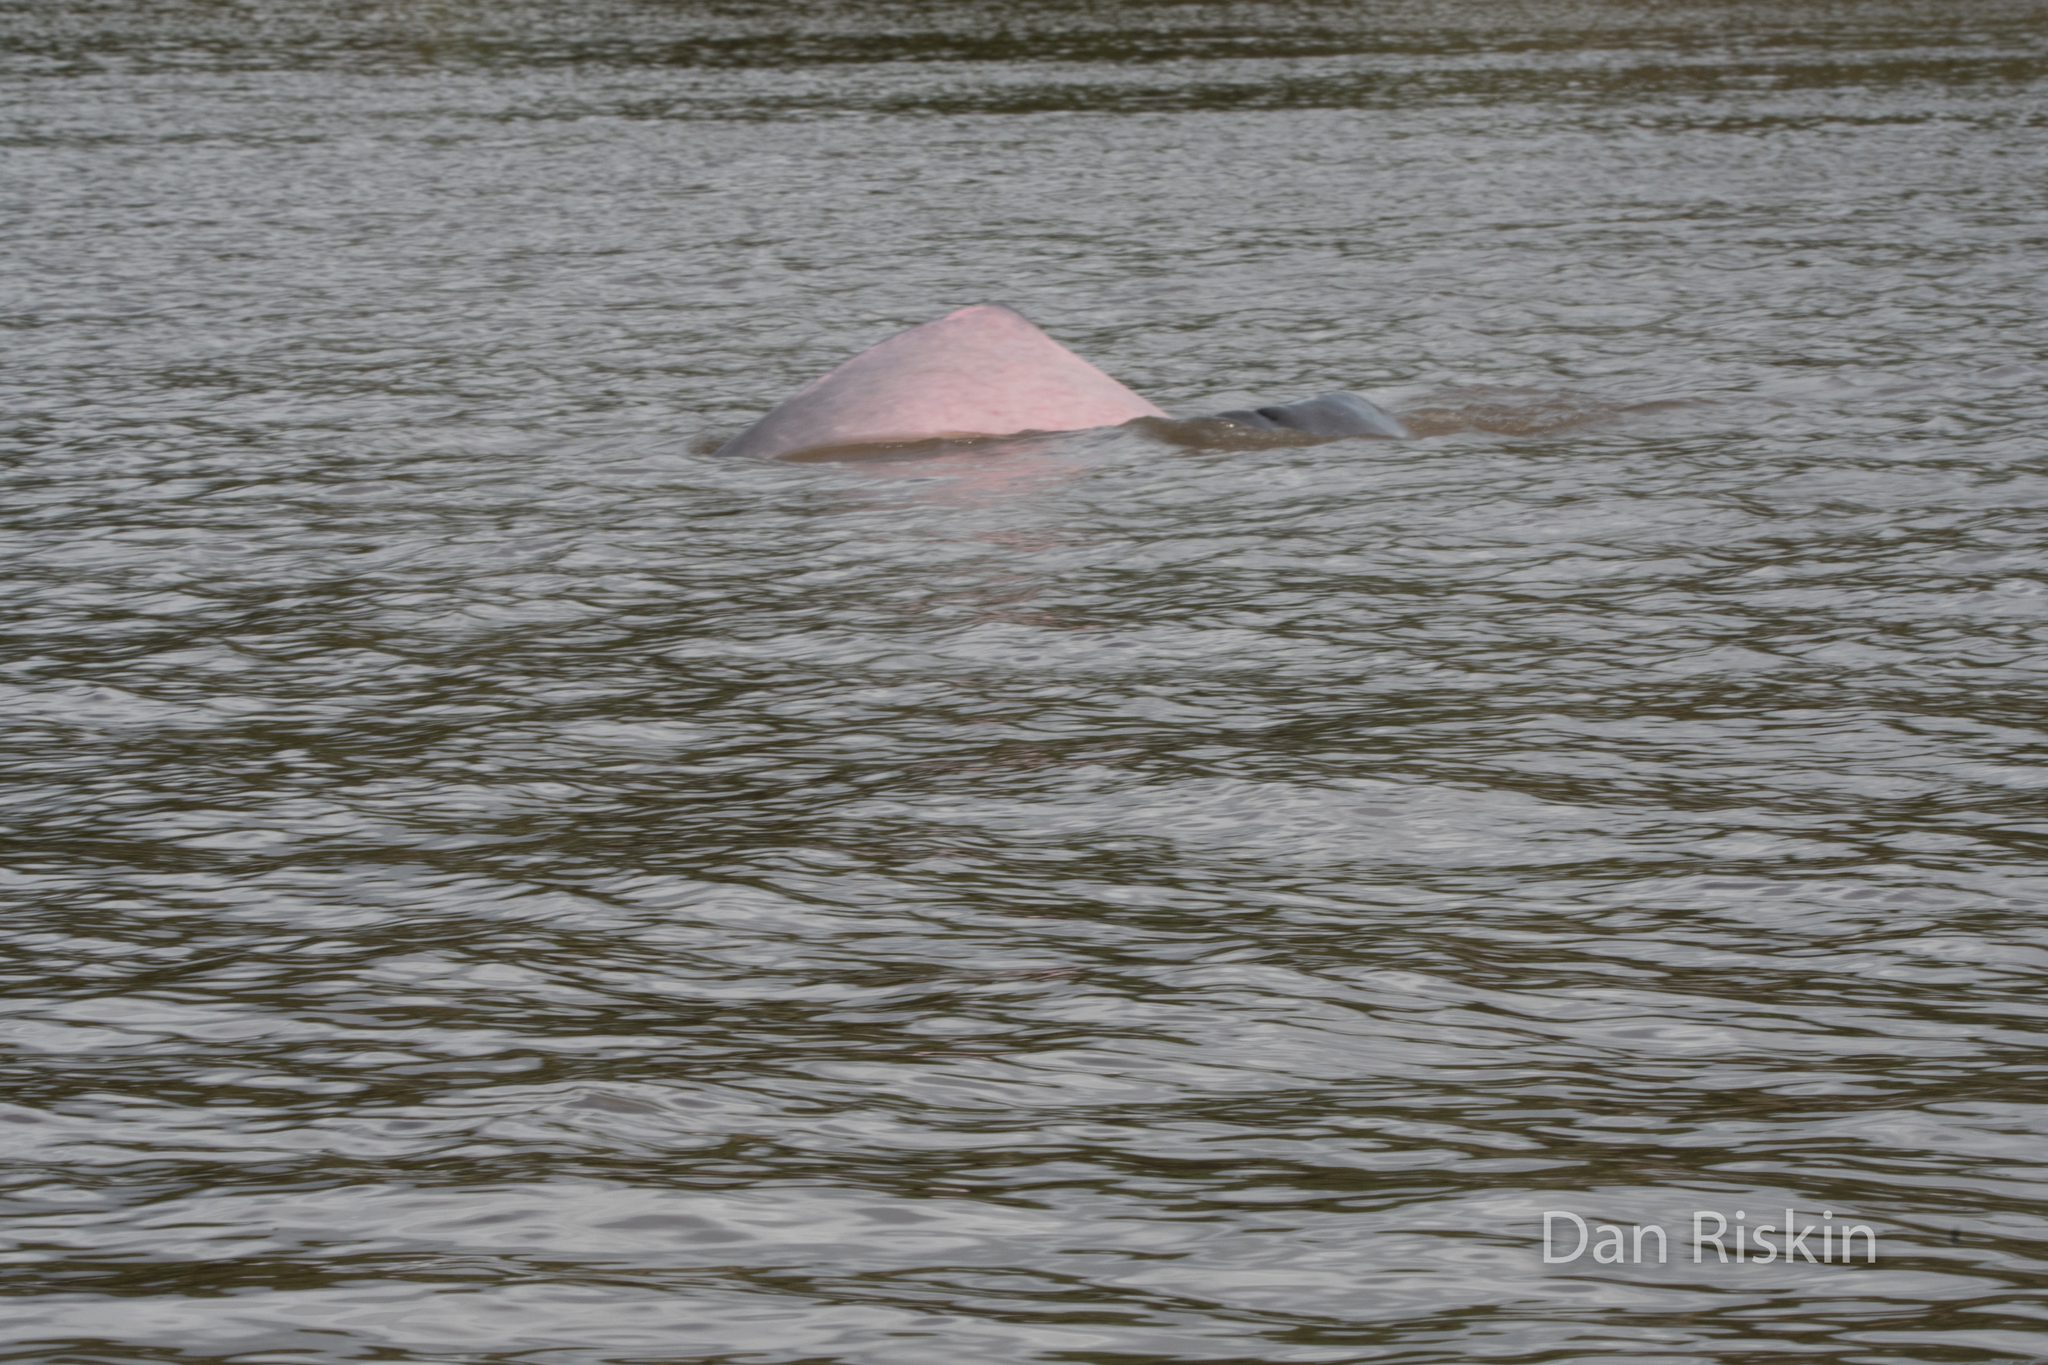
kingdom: Animalia
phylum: Chordata
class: Mammalia
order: Cetacea
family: Iniidae
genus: Inia
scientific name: Inia geoffrensis
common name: Amazon river dolphin
